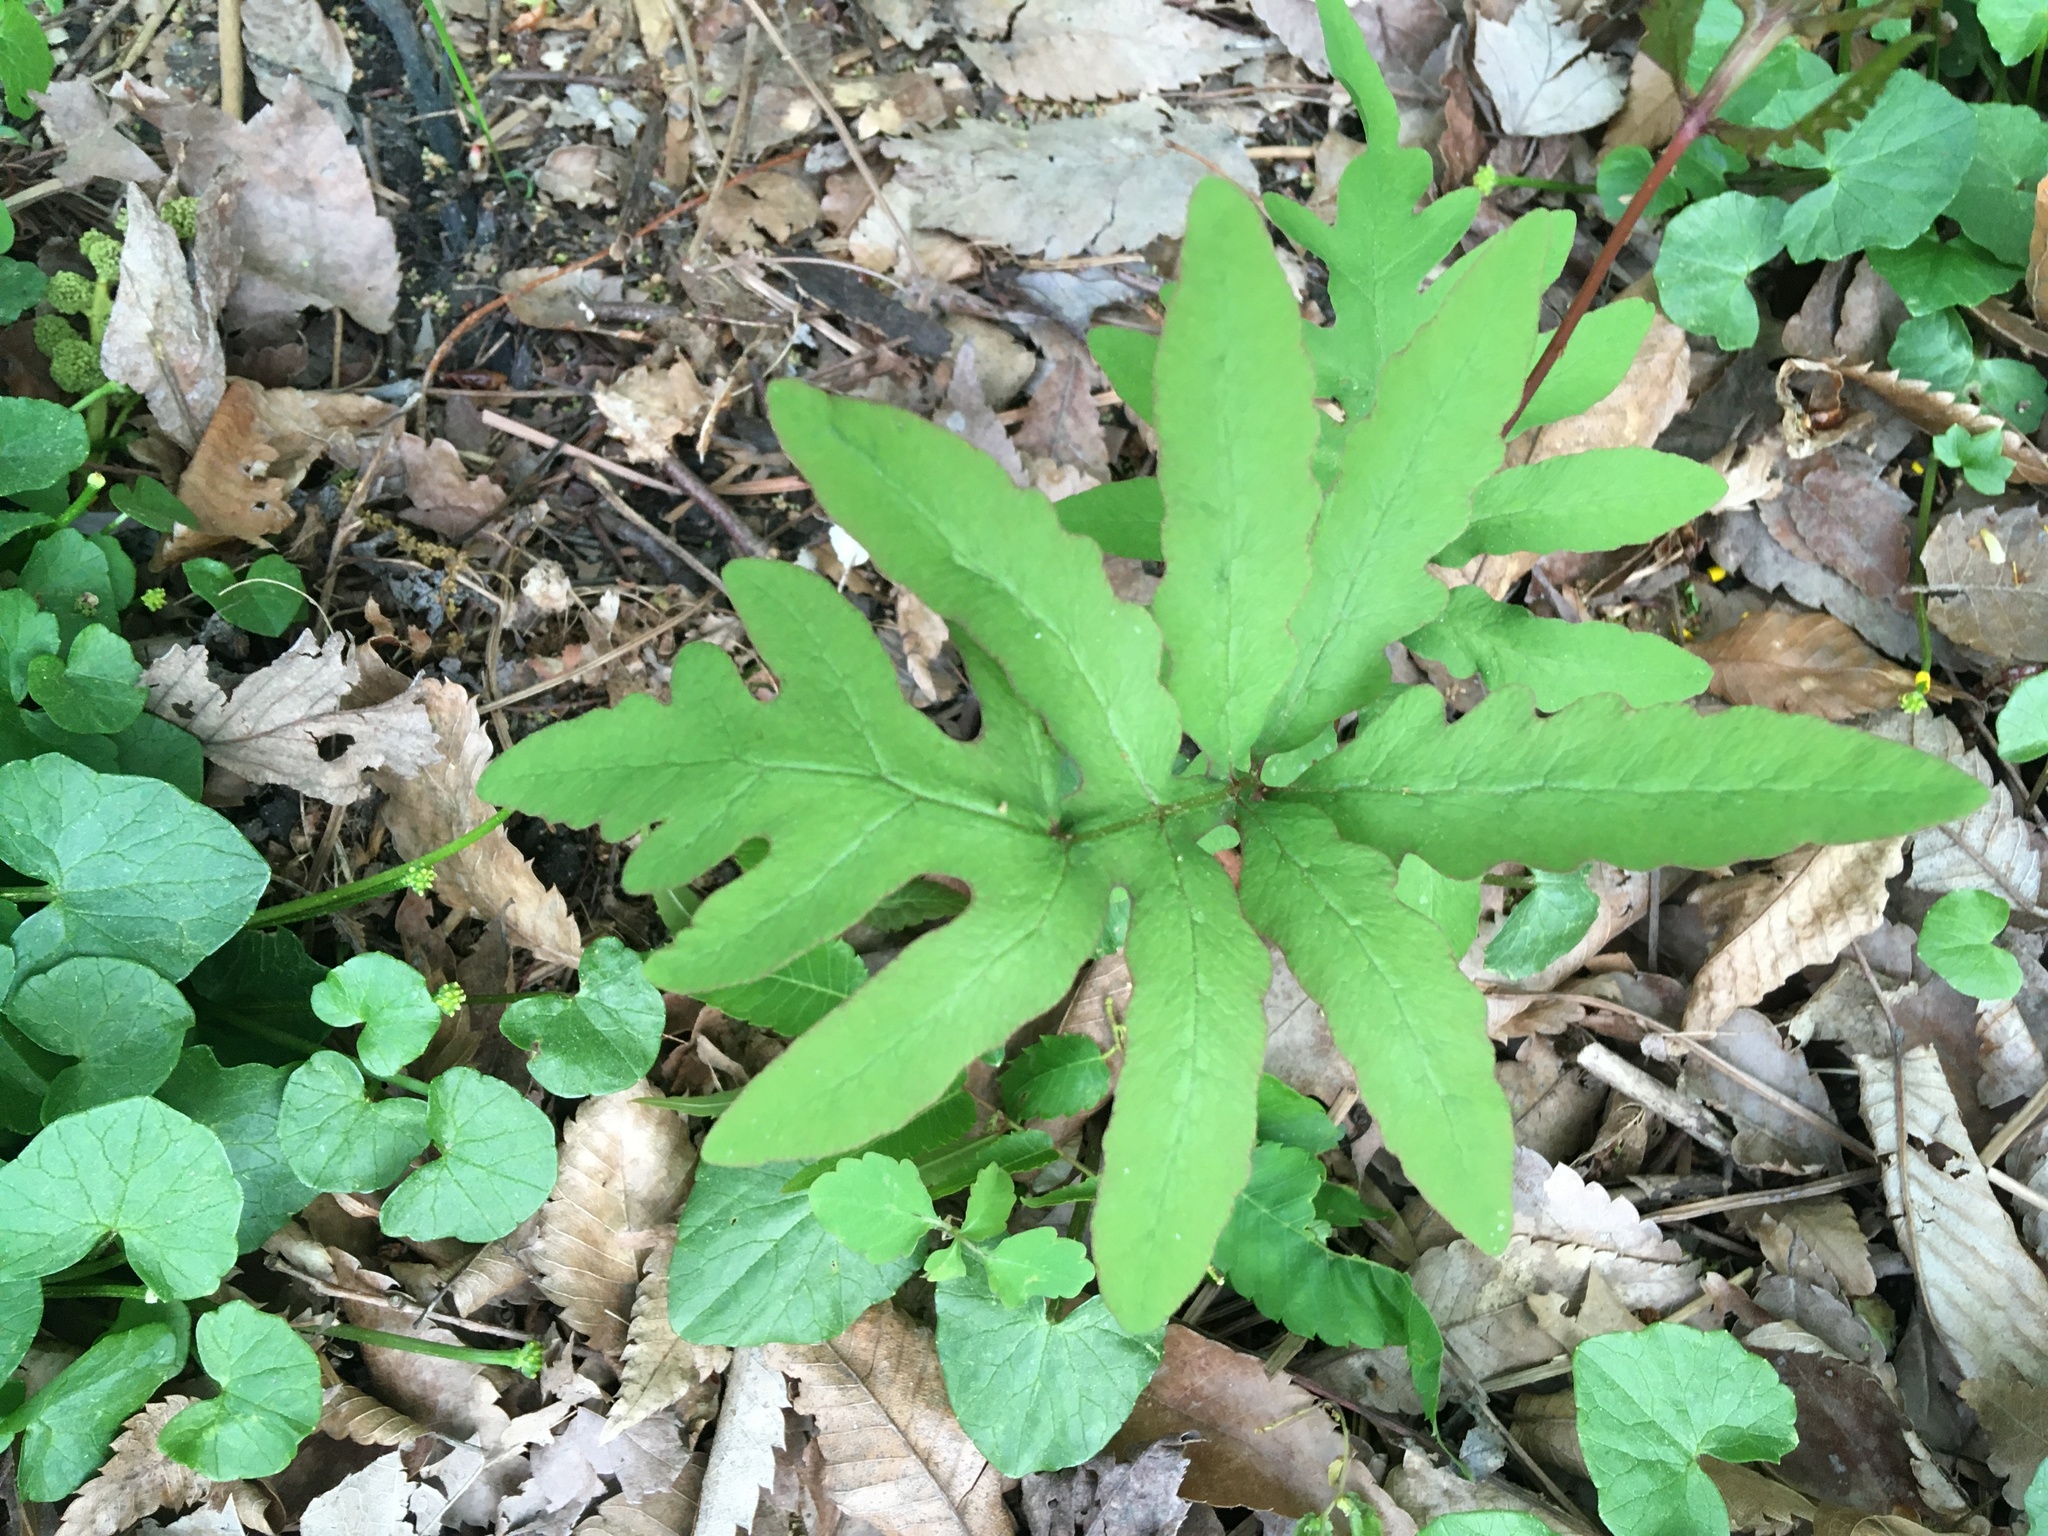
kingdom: Plantae
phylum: Tracheophyta
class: Polypodiopsida
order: Polypodiales
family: Onocleaceae
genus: Onoclea
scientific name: Onoclea sensibilis
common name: Sensitive fern
